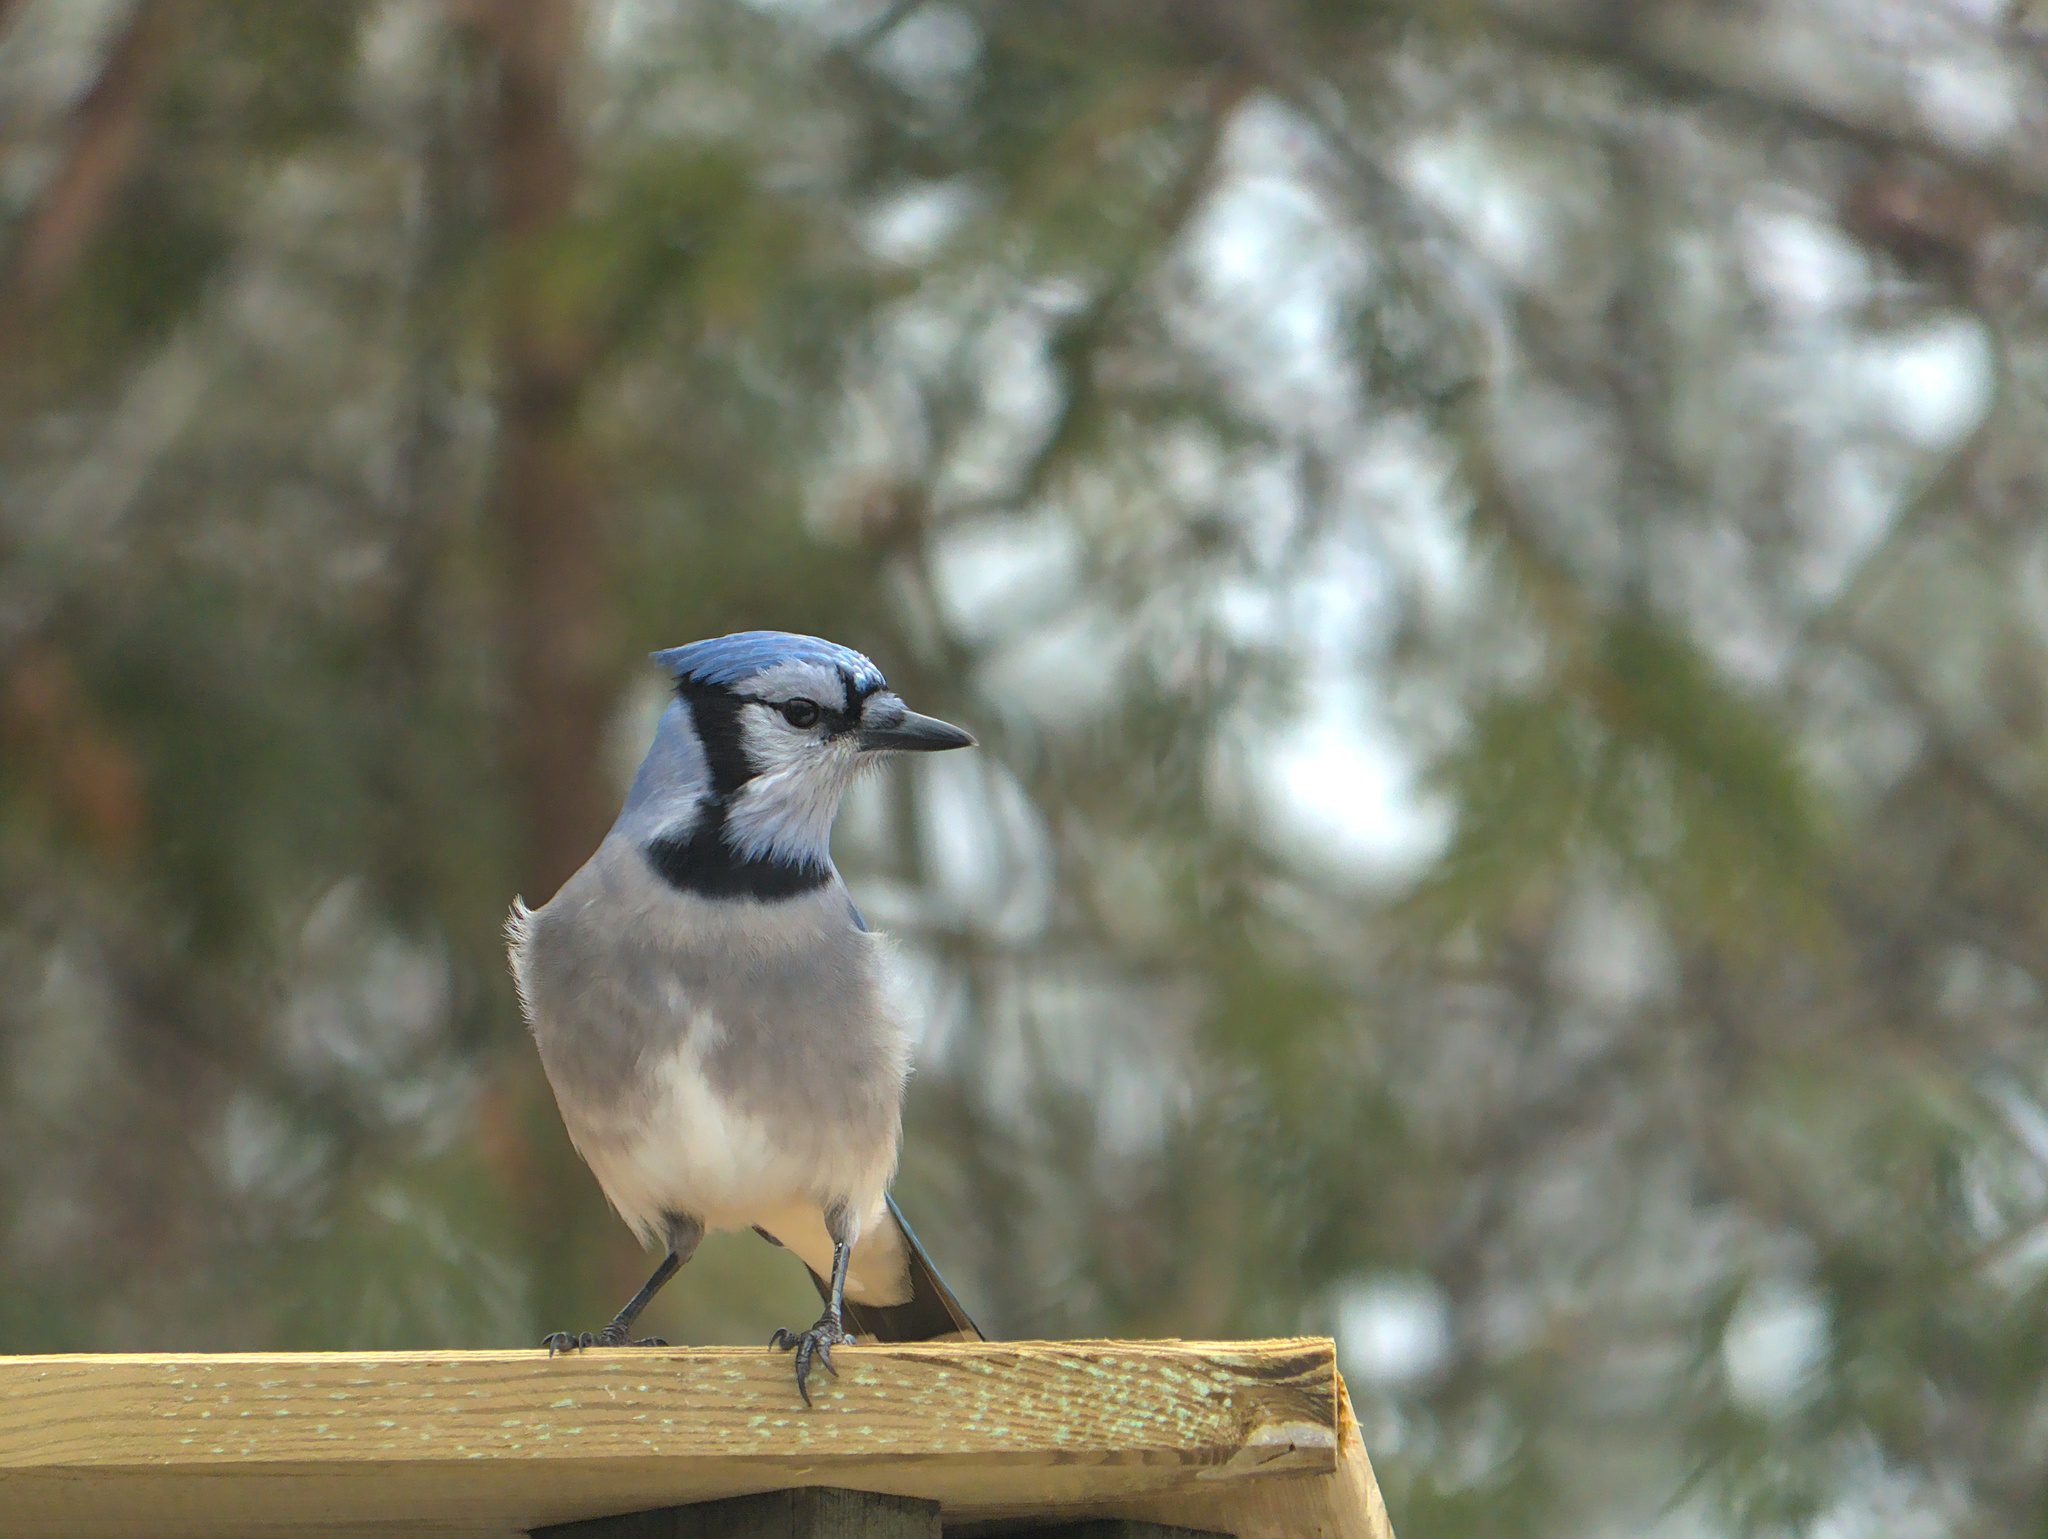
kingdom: Animalia
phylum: Chordata
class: Aves
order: Passeriformes
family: Corvidae
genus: Cyanocitta
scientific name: Cyanocitta cristata
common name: Blue jay
